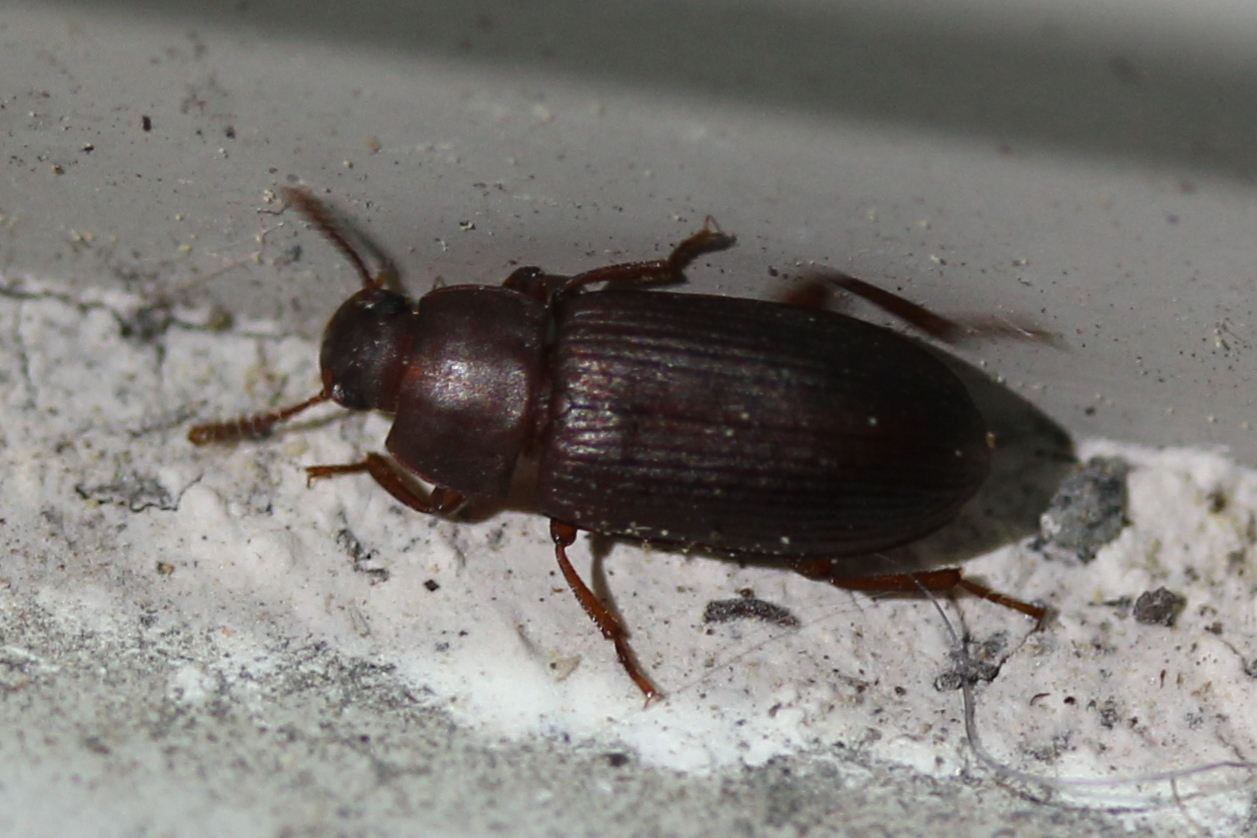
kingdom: Animalia
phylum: Arthropoda
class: Insecta
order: Coleoptera
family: Tenebrionidae
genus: Tenebrio
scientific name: Tenebrio molitor
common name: Hardback beetle
